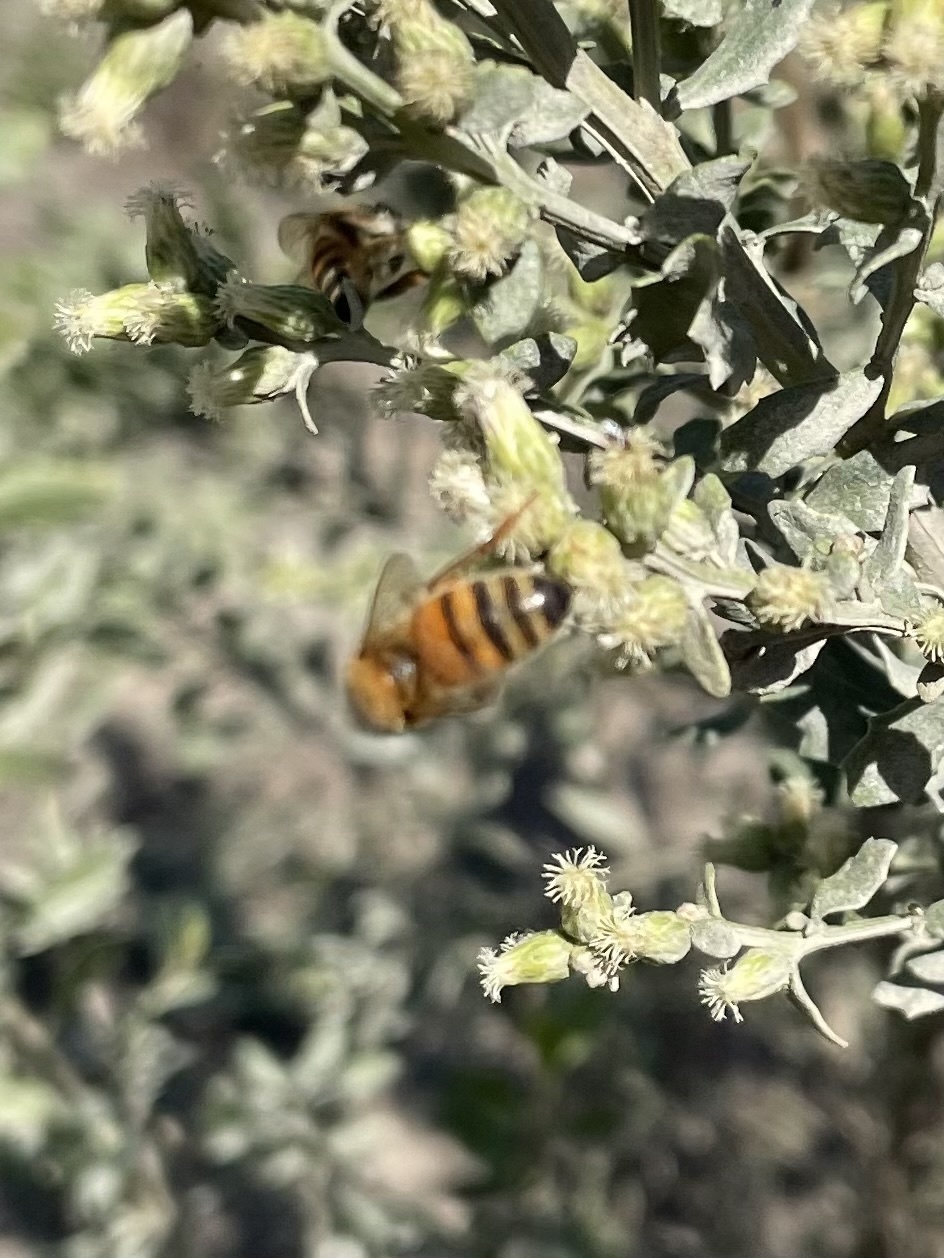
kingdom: Animalia
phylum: Arthropoda
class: Insecta
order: Hymenoptera
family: Apidae
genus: Apis
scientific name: Apis mellifera
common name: Honey bee
